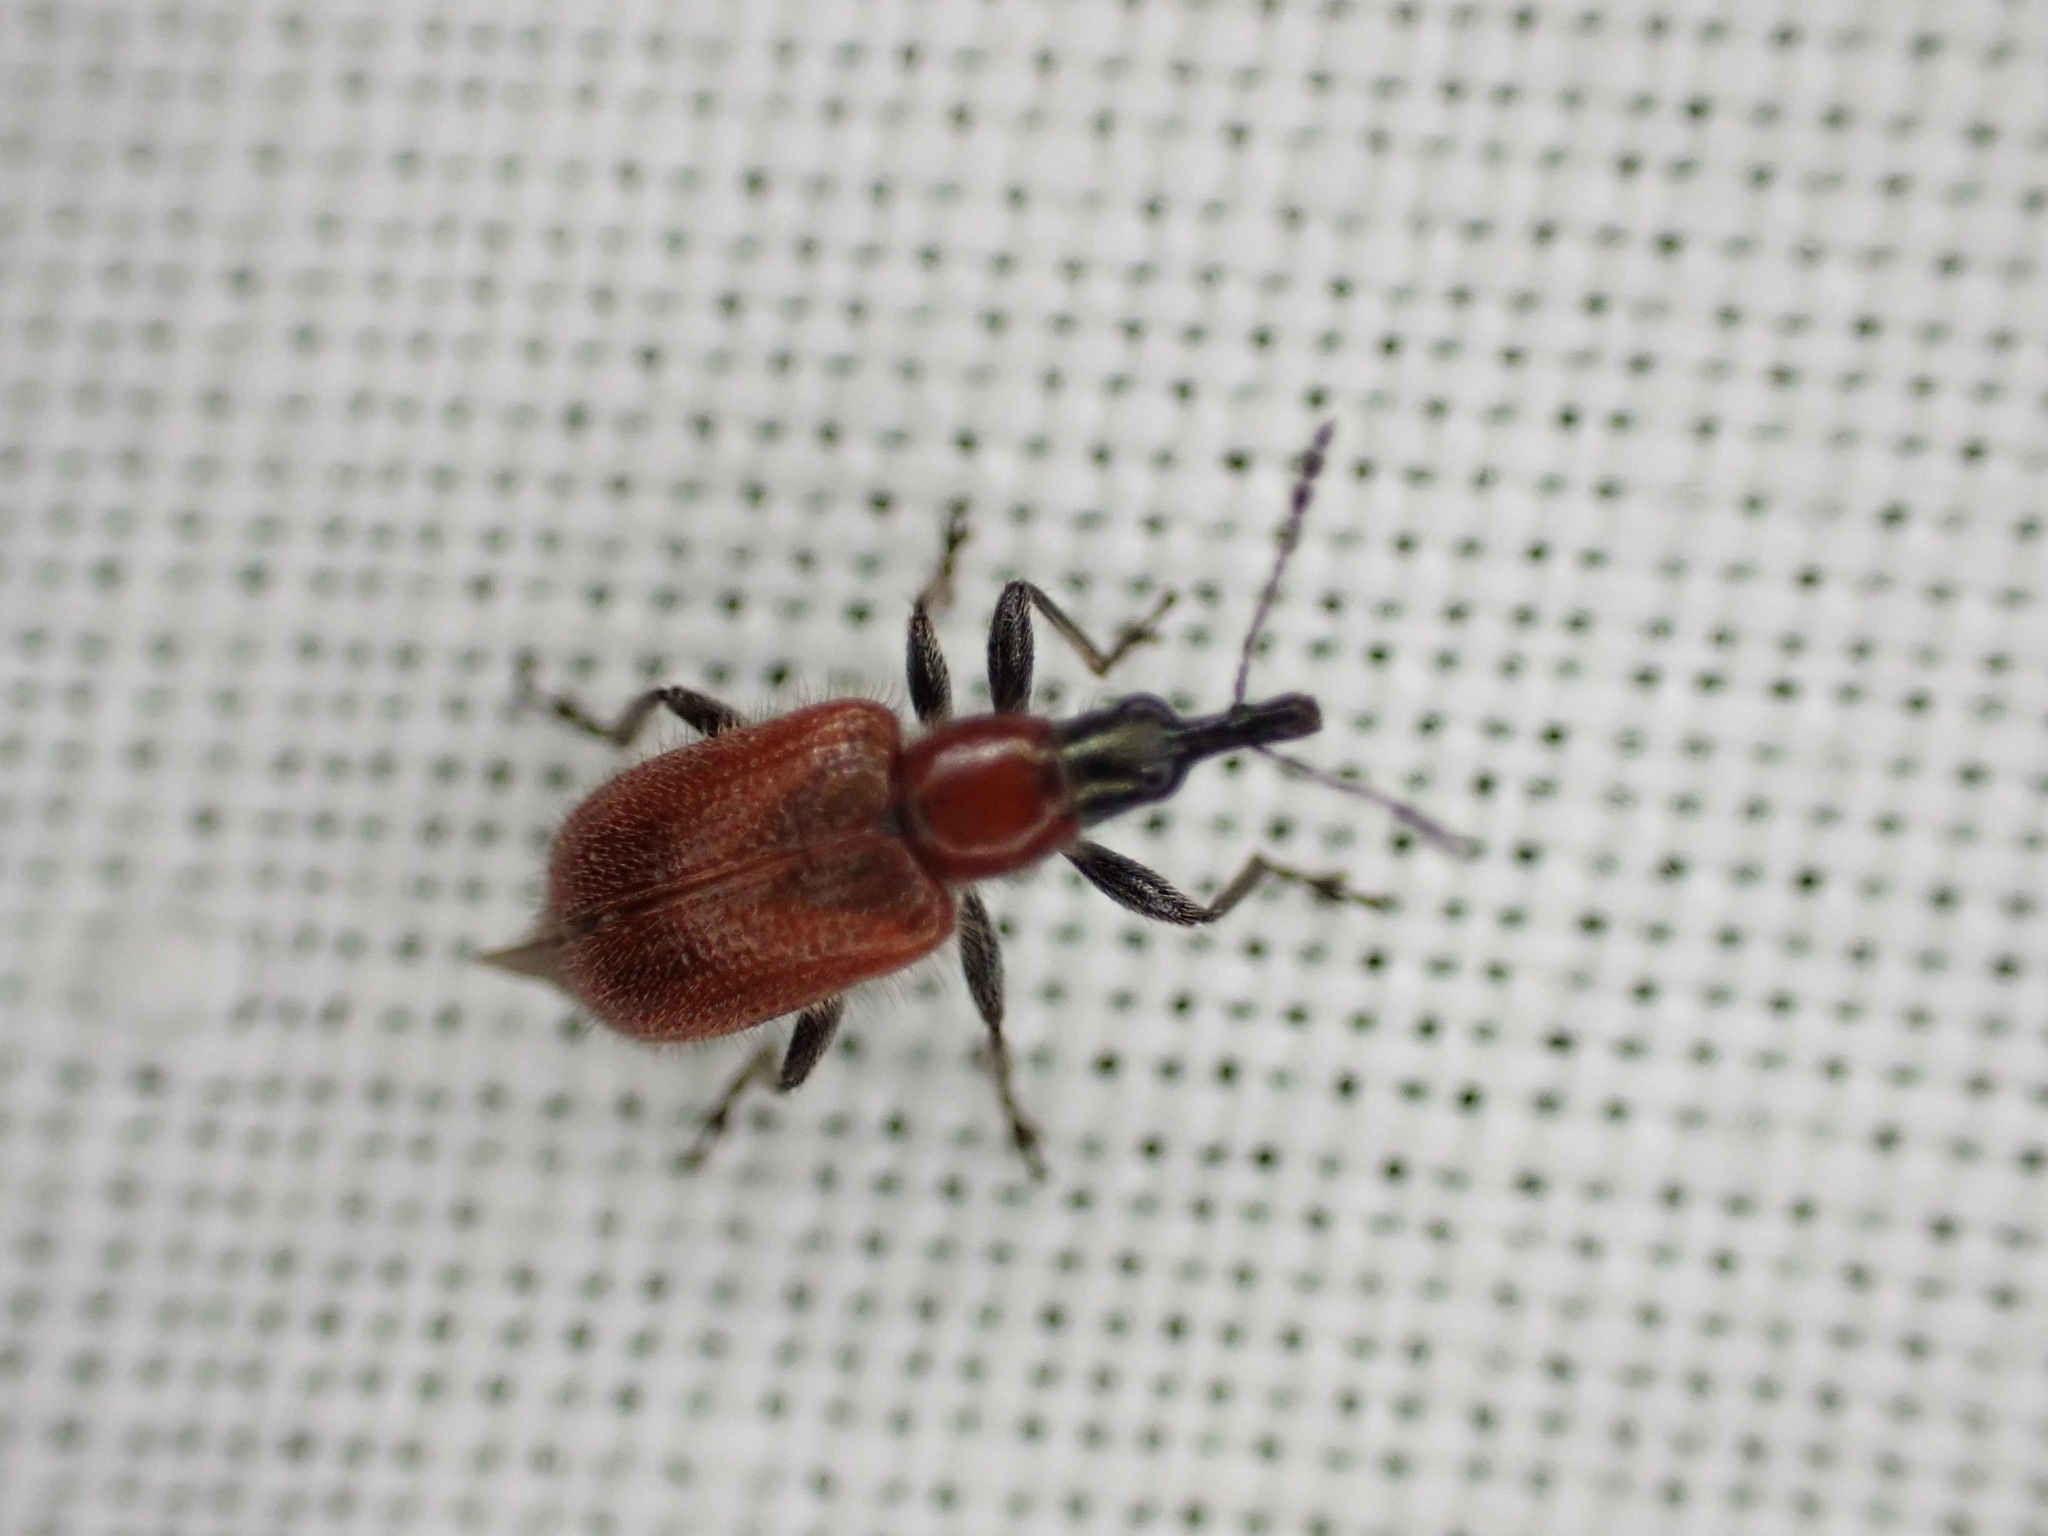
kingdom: Animalia
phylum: Arthropoda
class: Insecta
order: Coleoptera
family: Attelabidae
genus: Lasiorhynchites
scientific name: Lasiorhynchites caeruleocephalus
